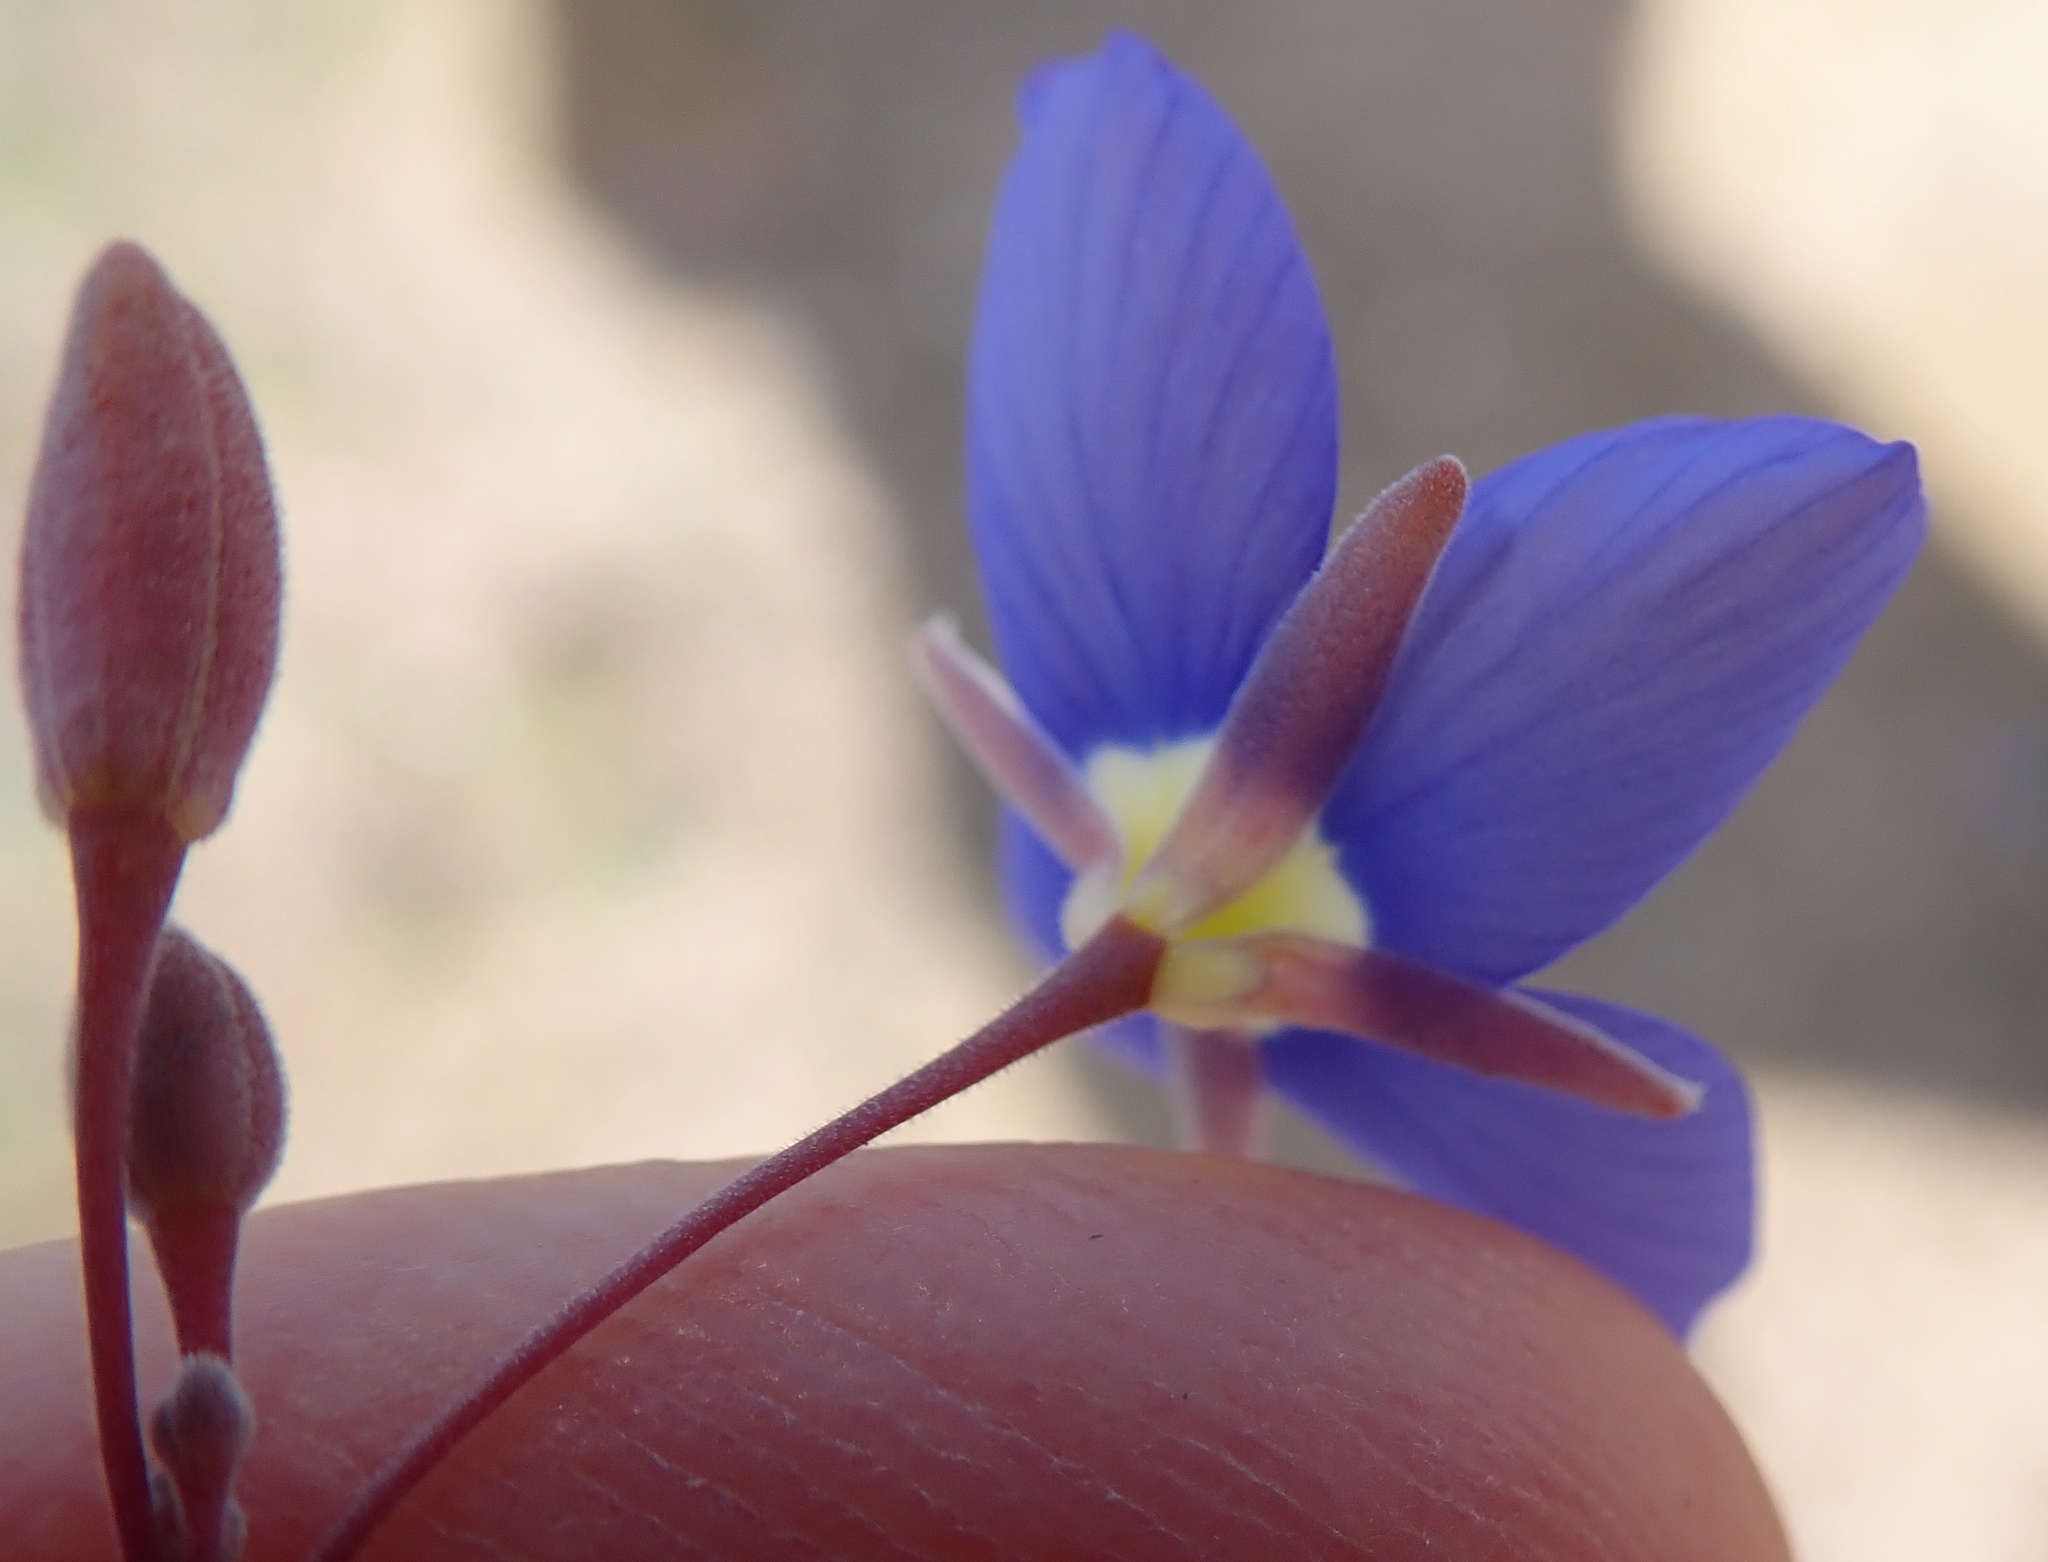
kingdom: Plantae
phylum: Tracheophyta
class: Magnoliopsida
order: Brassicales
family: Brassicaceae
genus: Heliophila
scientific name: Heliophila schulzii
